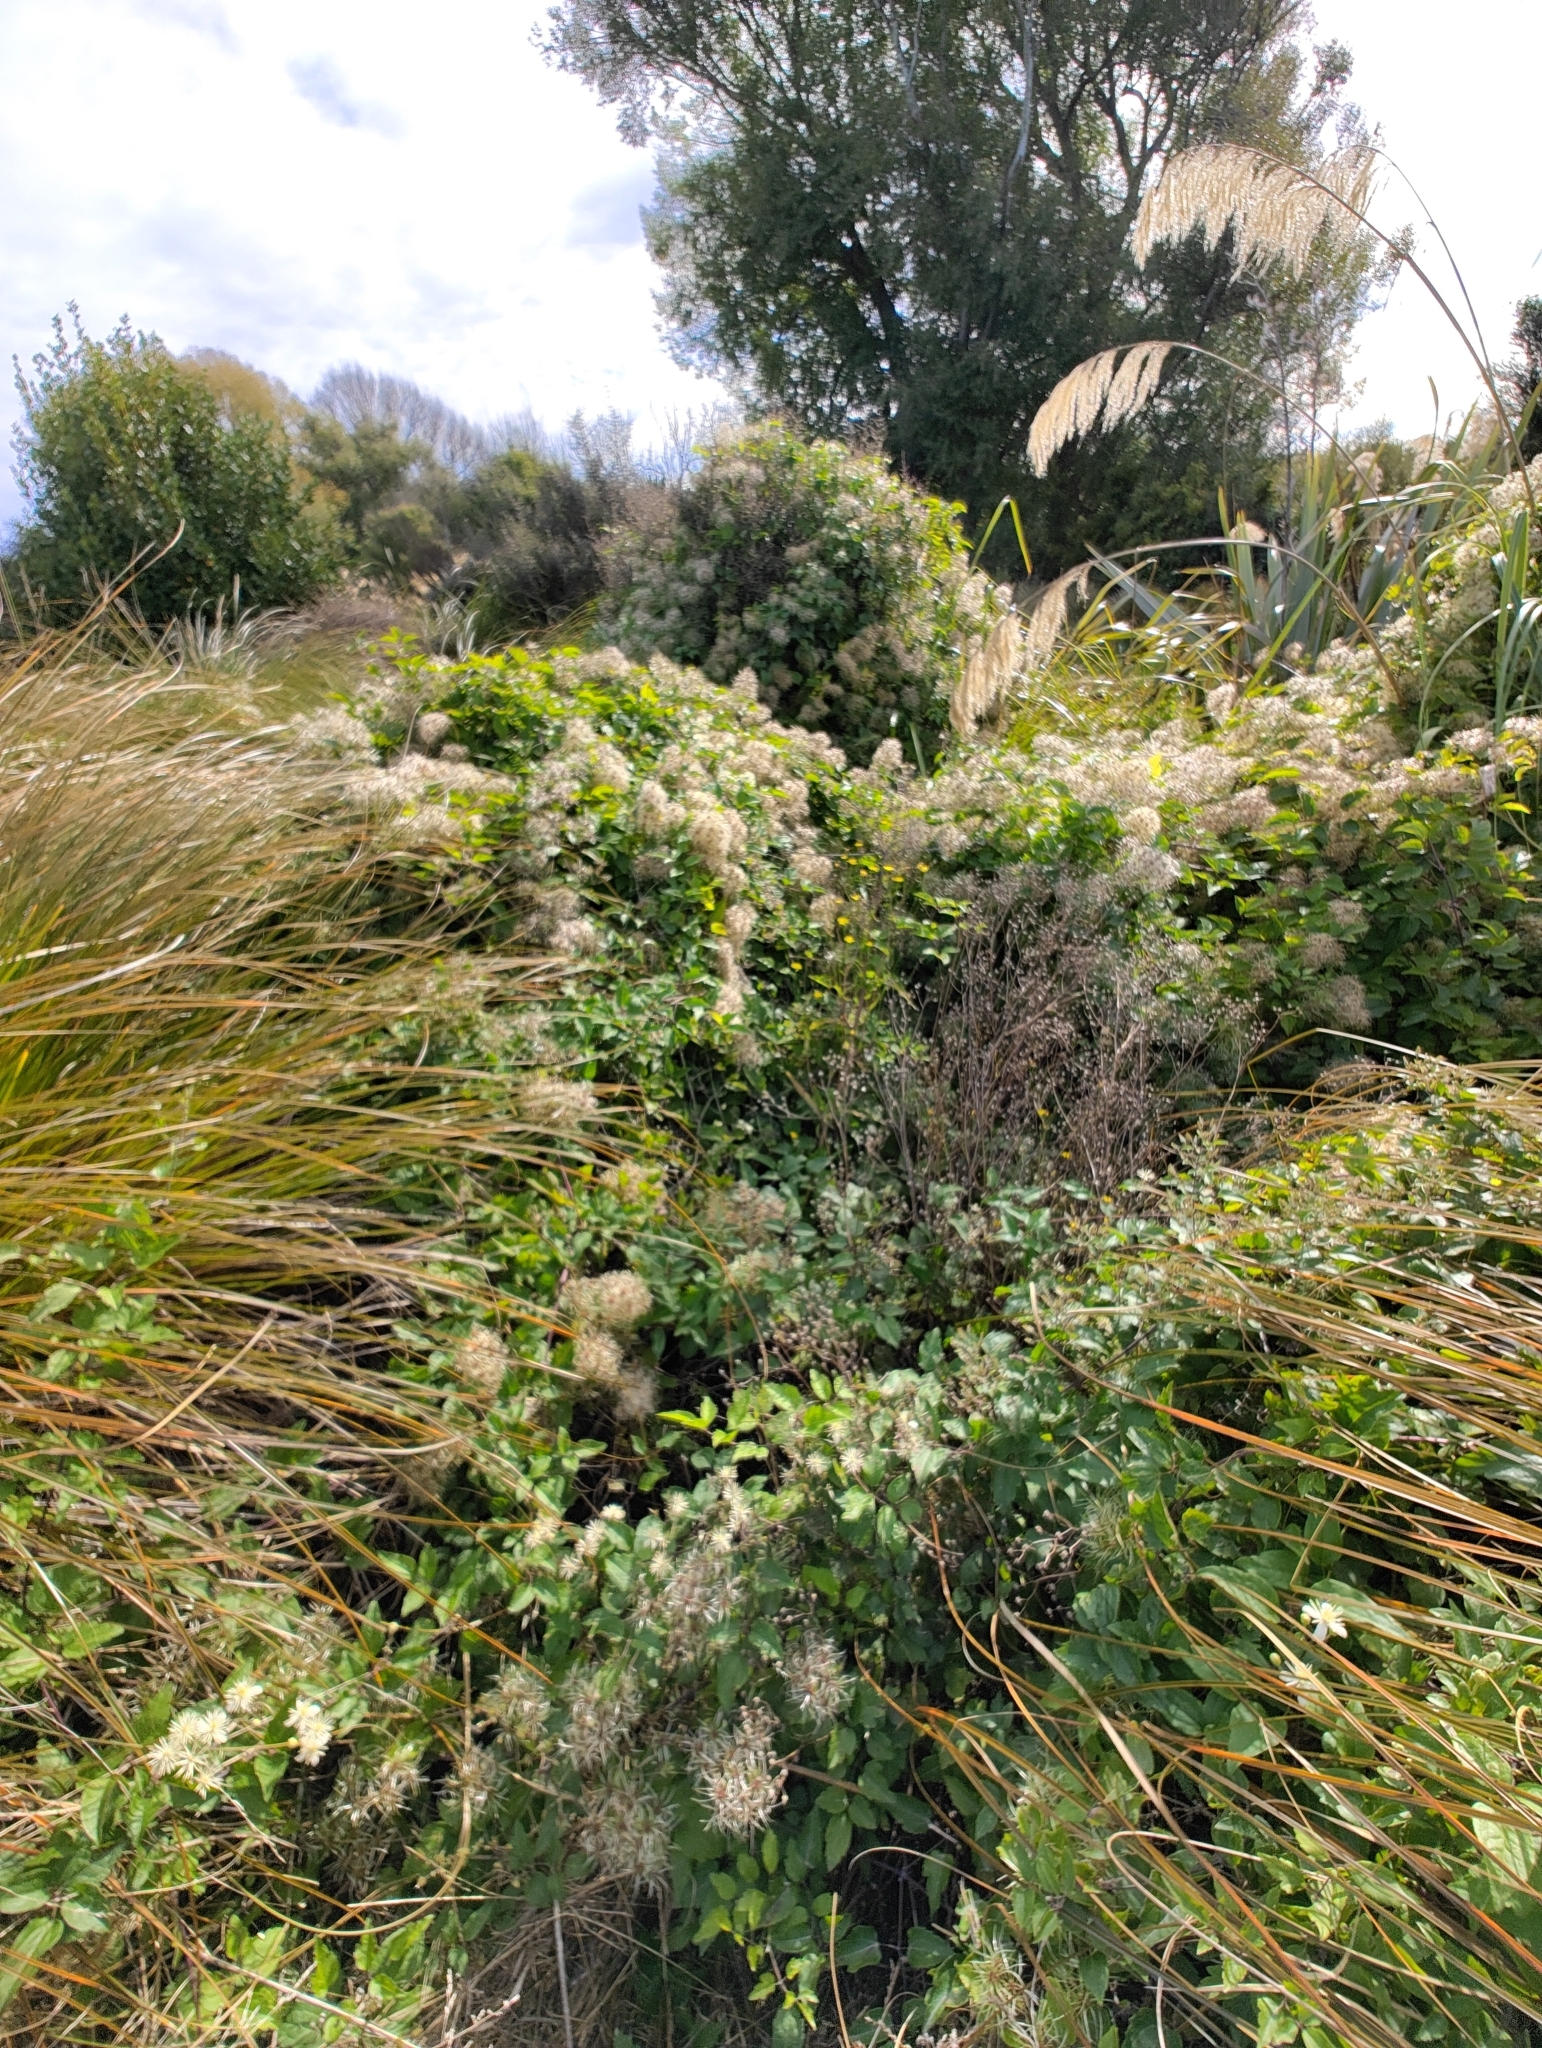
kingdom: Plantae
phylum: Tracheophyta
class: Magnoliopsida
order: Ranunculales
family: Ranunculaceae
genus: Clematis
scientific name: Clematis vitalba
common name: Evergreen clematis
